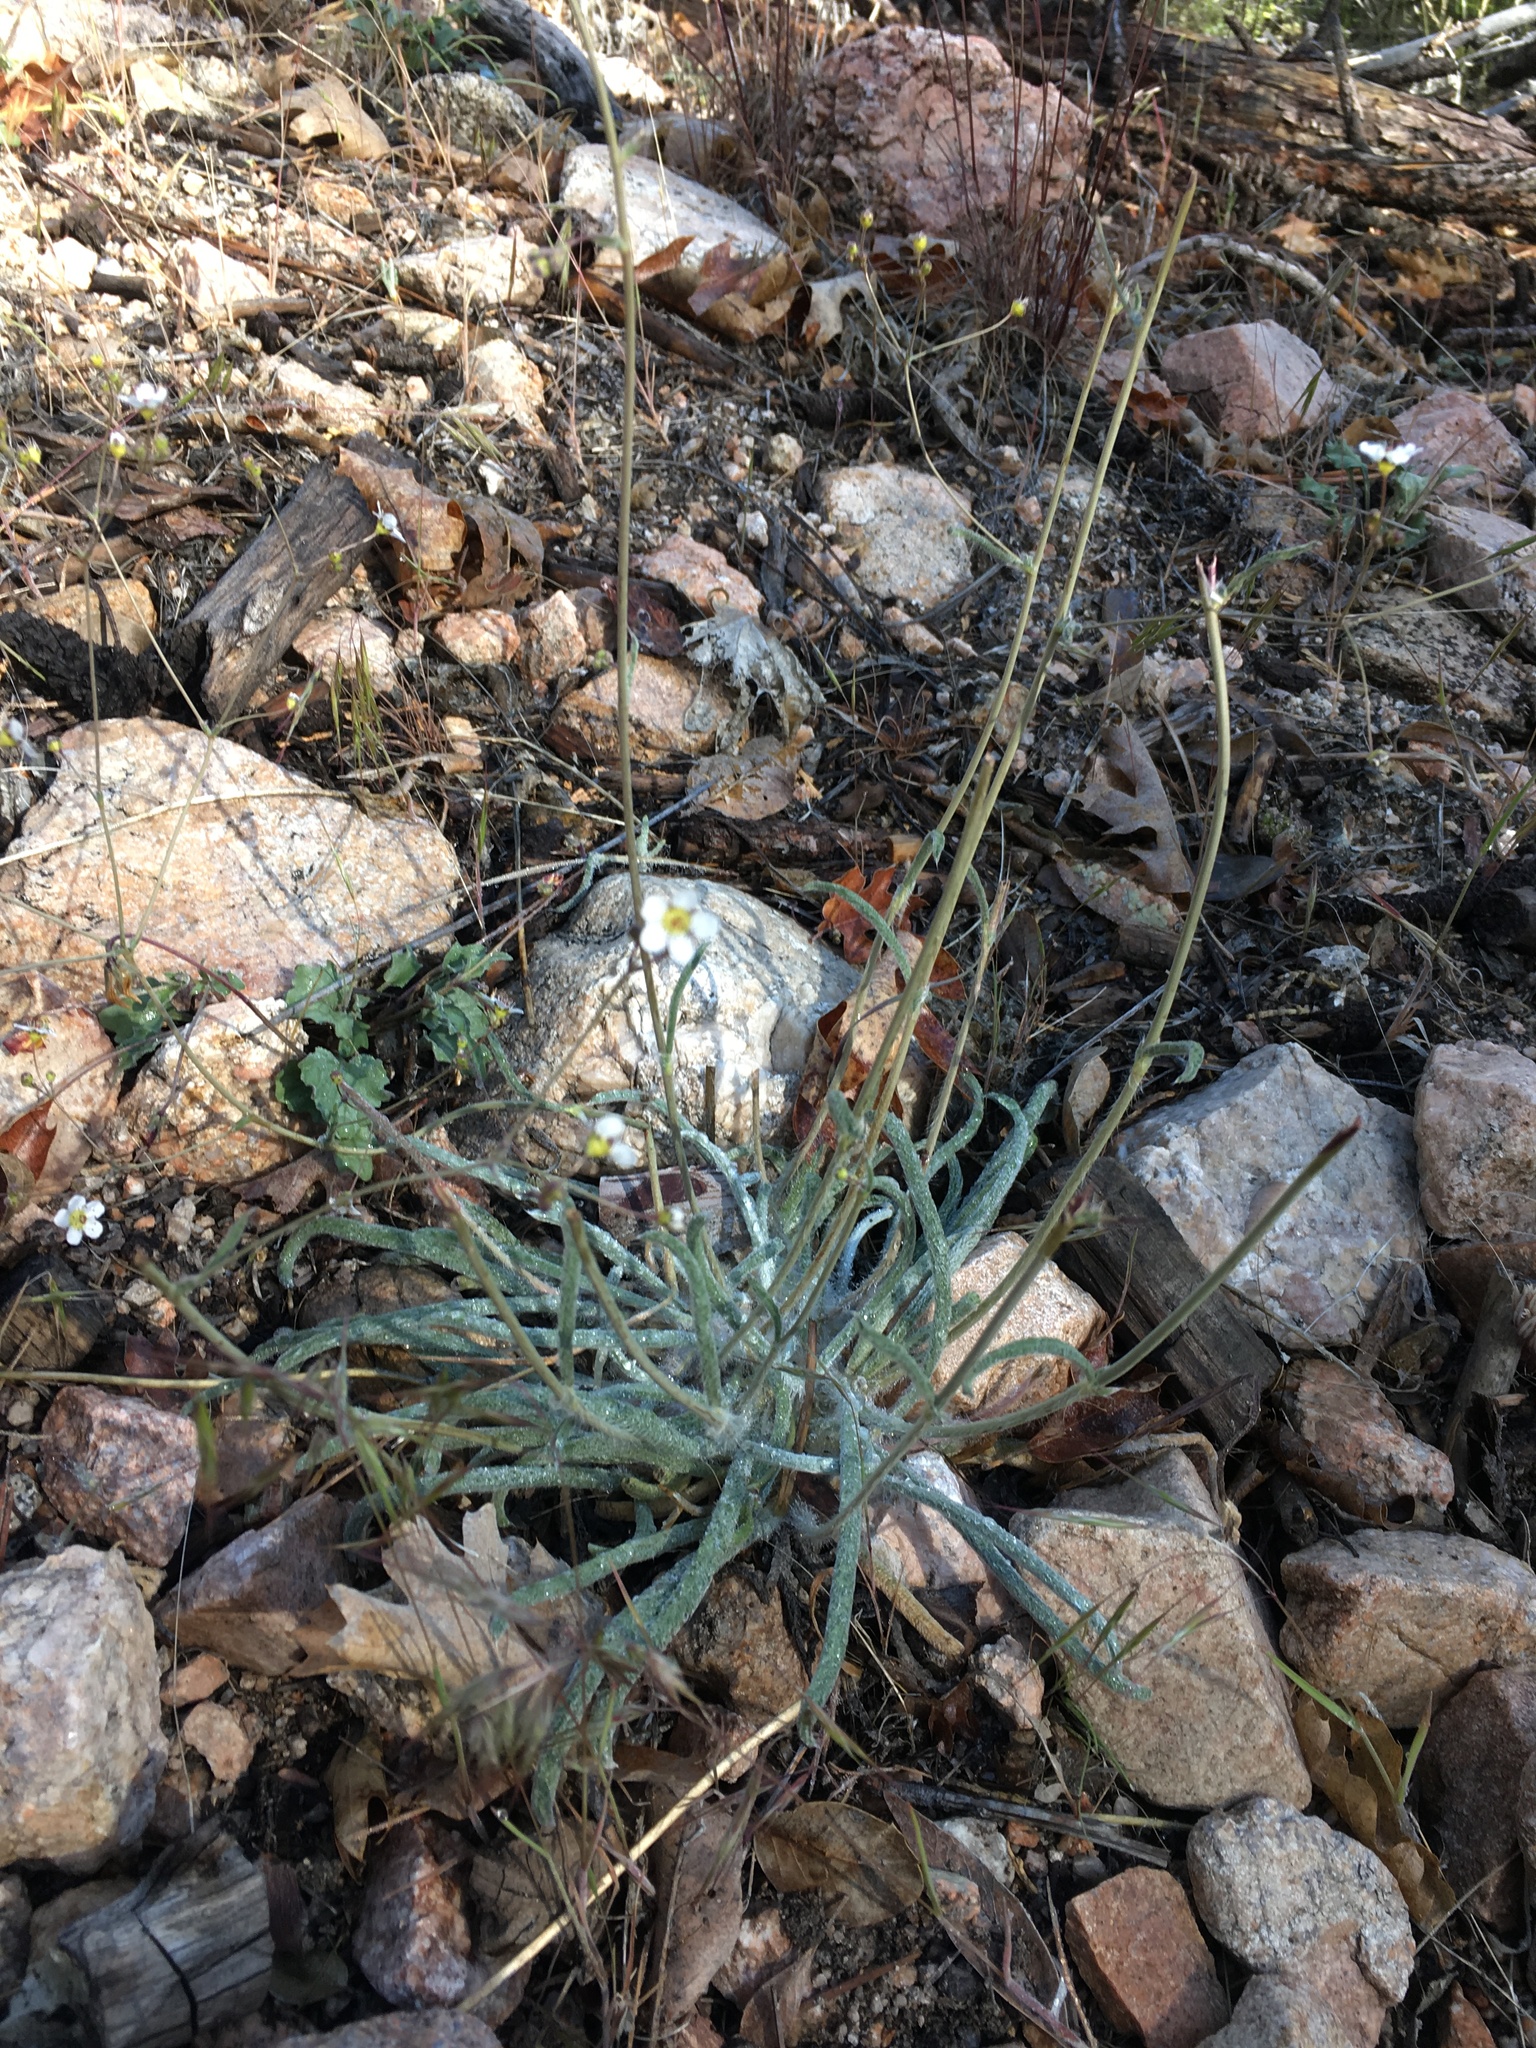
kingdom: Plantae
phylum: Tracheophyta
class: Magnoliopsida
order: Rosales
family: Rosaceae
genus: Potentilla
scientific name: Potentilla santolinoides
